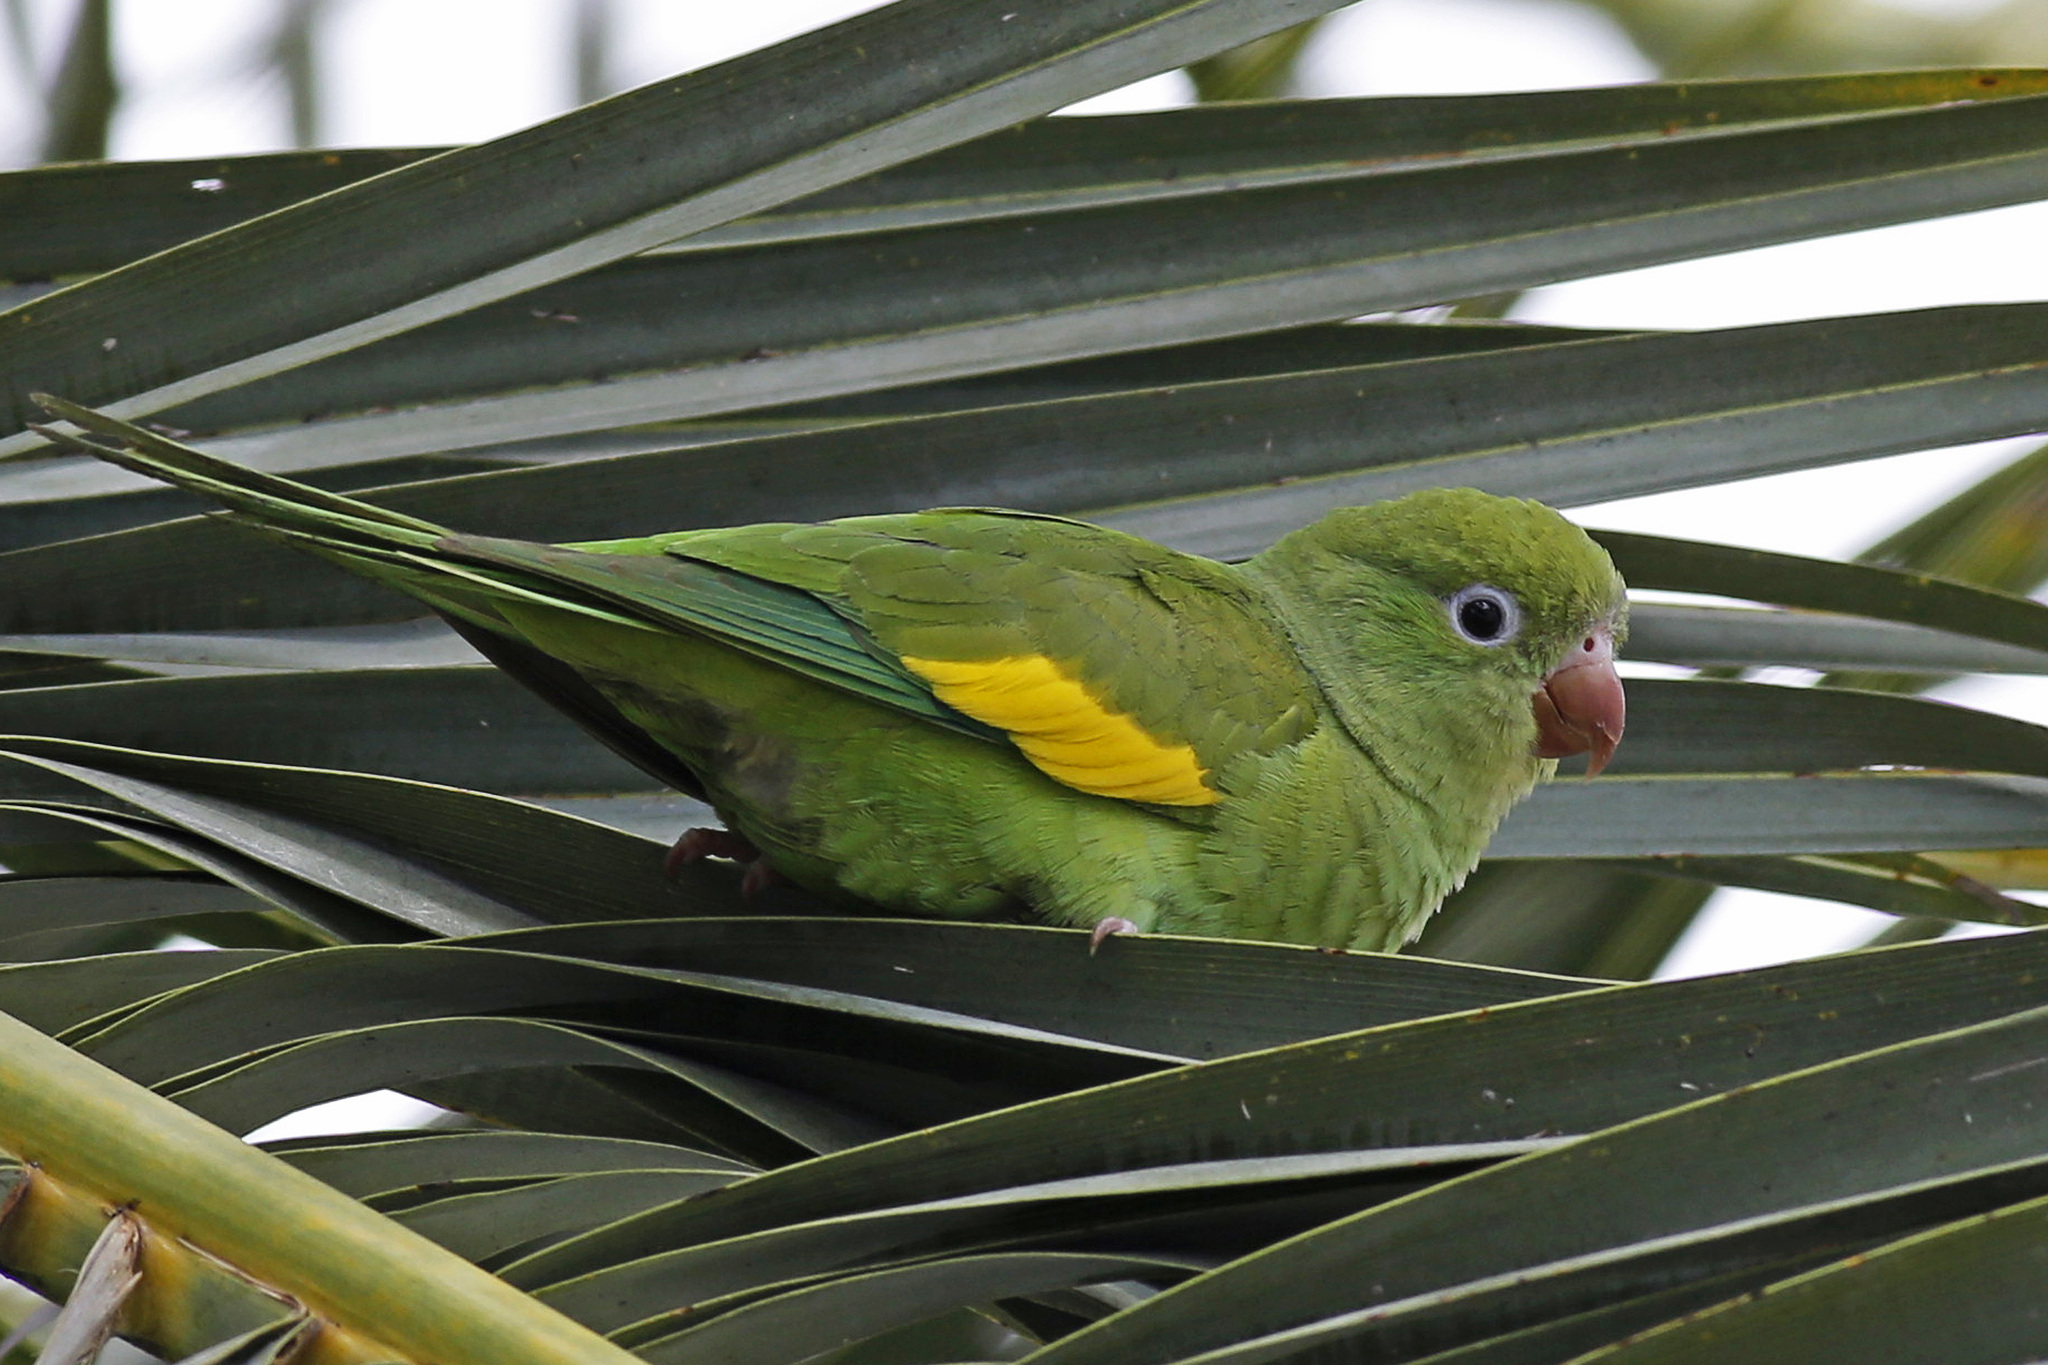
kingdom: Animalia
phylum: Chordata
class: Aves
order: Psittaciformes
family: Psittacidae
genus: Brotogeris
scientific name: Brotogeris chiriri
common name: Yellow-chevroned parakeet
